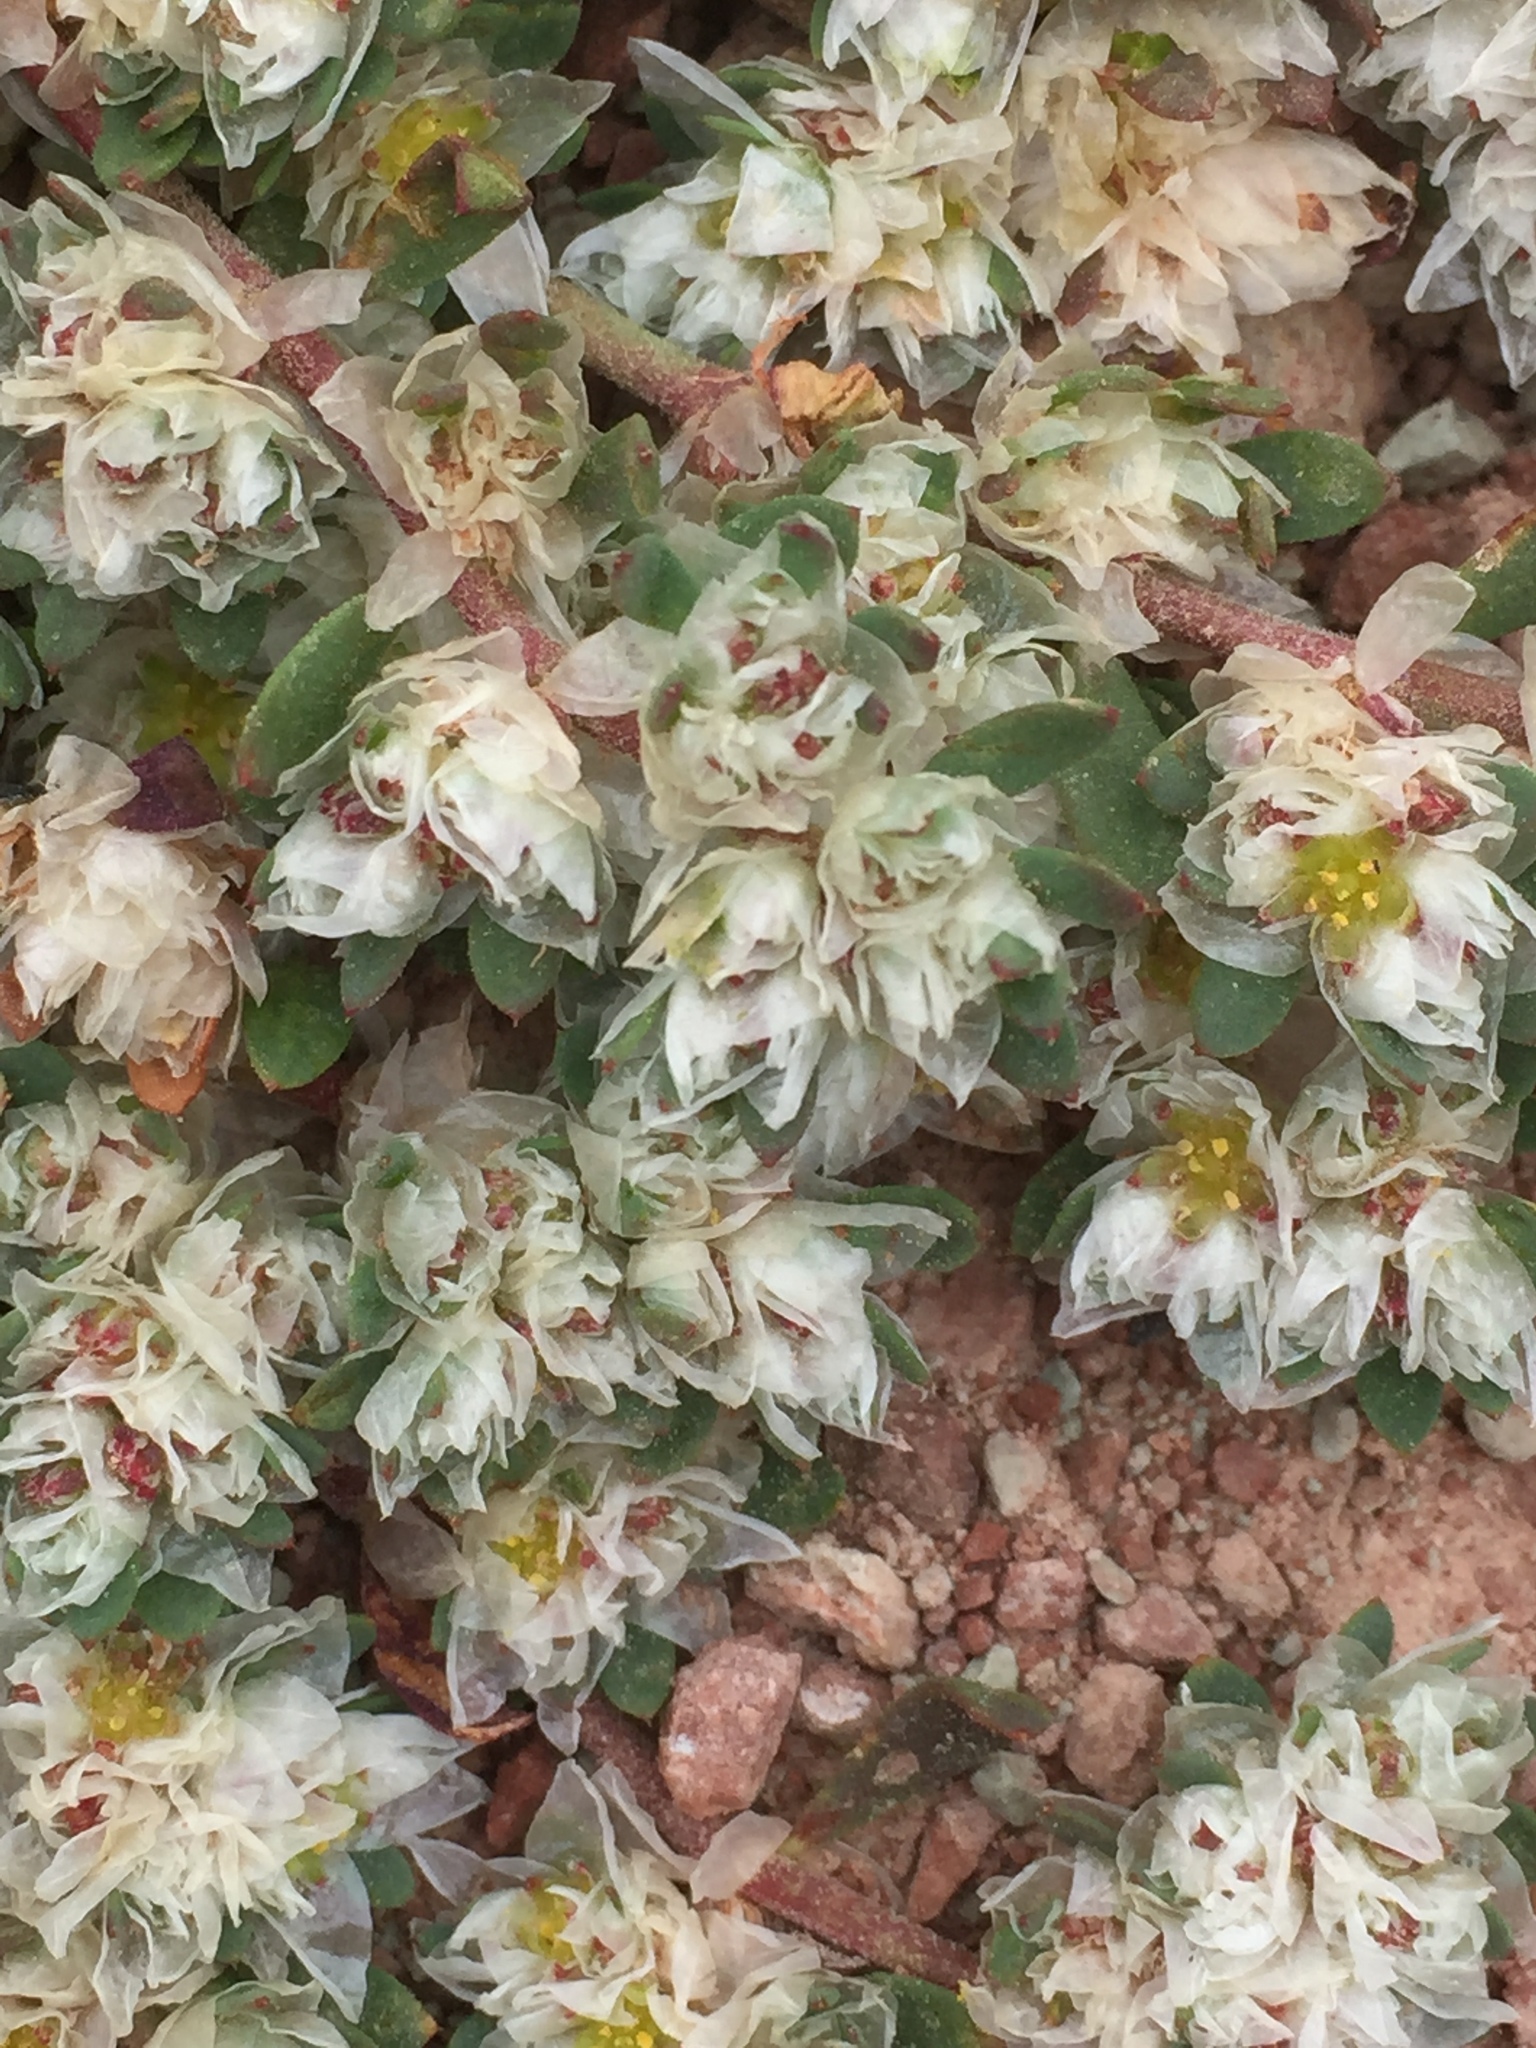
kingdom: Plantae
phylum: Tracheophyta
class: Magnoliopsida
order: Caryophyllales
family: Caryophyllaceae
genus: Paronychia
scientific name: Paronychia argentea
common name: Silver nailroot
